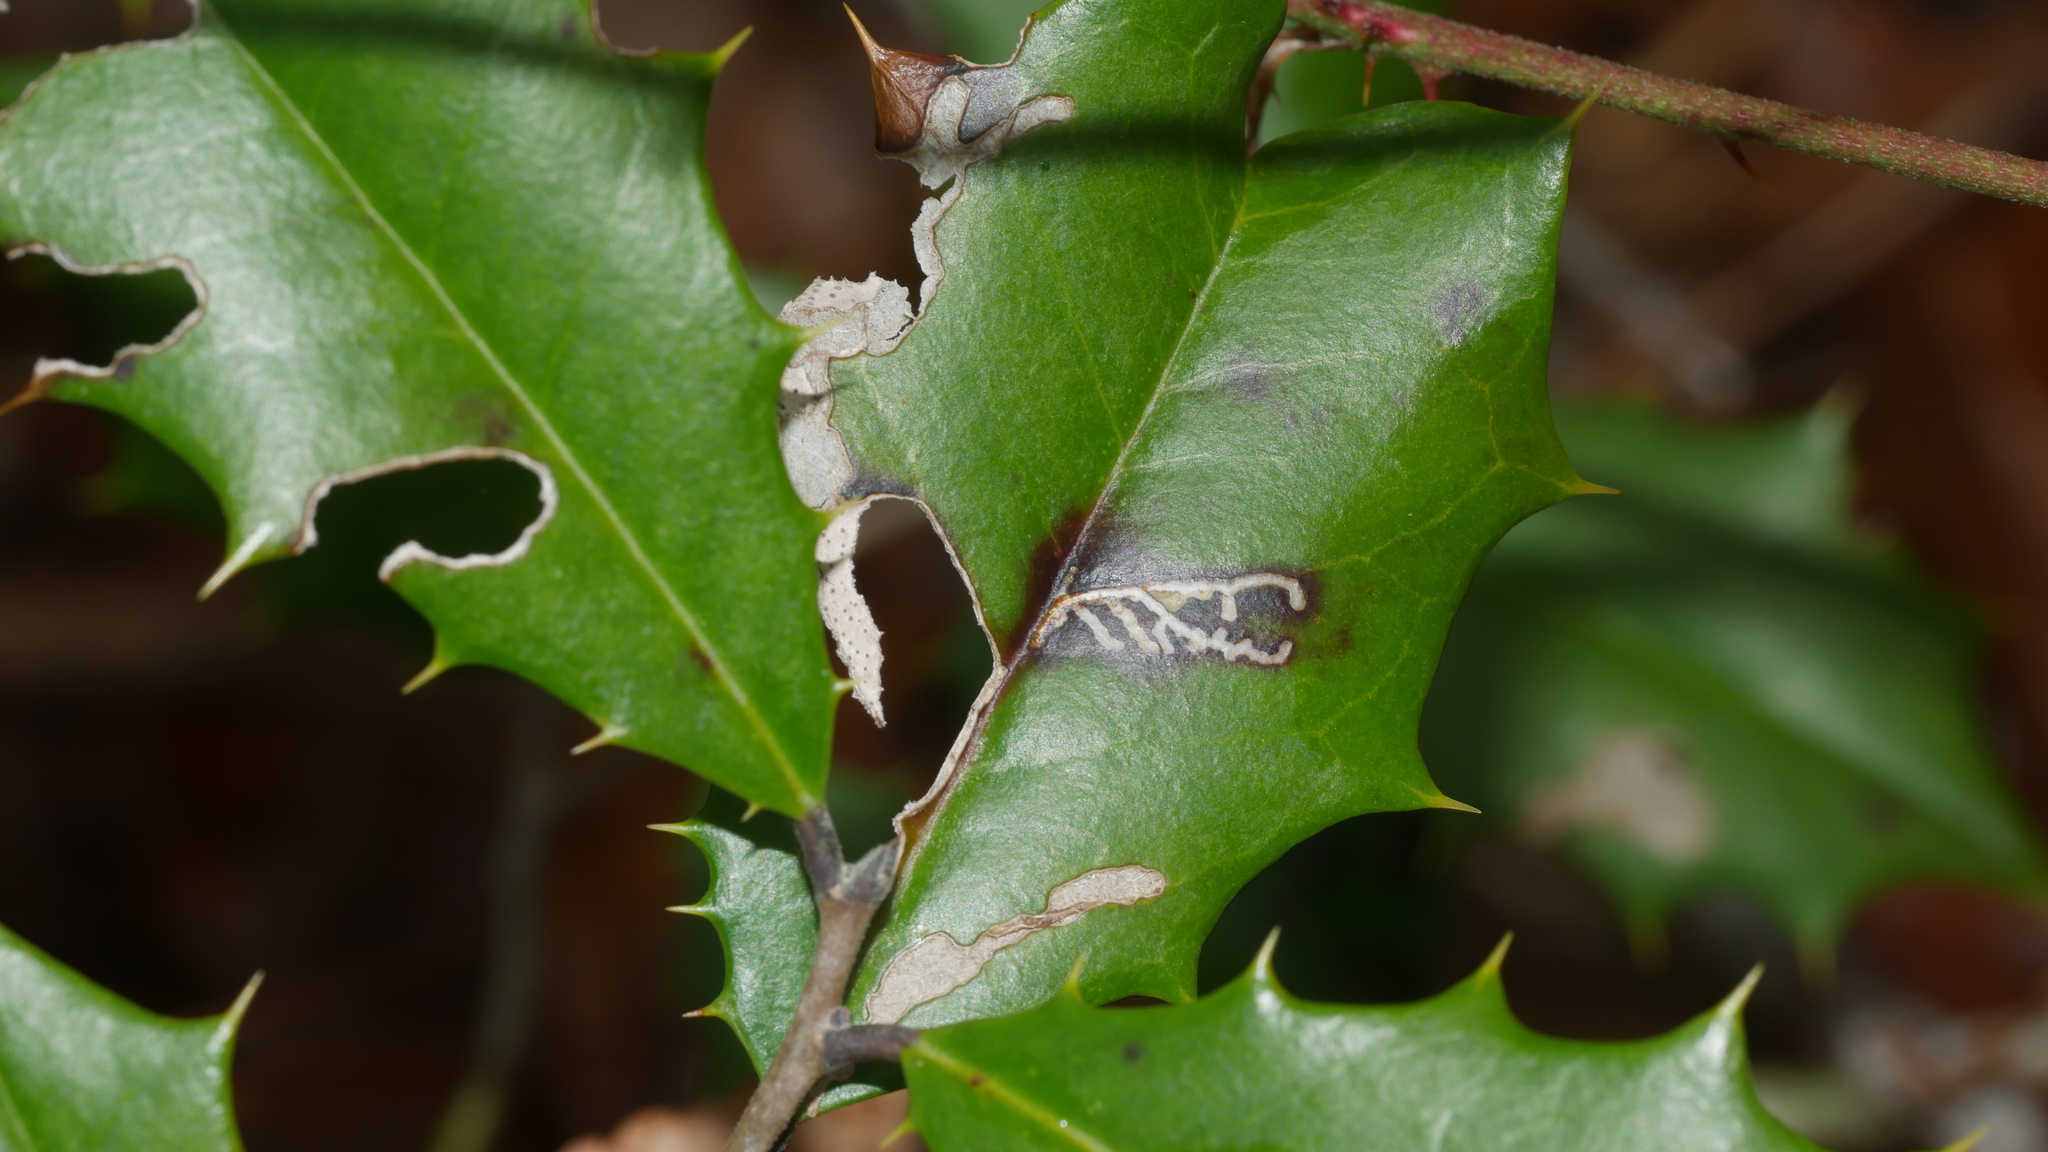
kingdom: Animalia
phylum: Arthropoda
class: Insecta
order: Lepidoptera
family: Tortricidae
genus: Rhopobota
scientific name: Rhopobota
